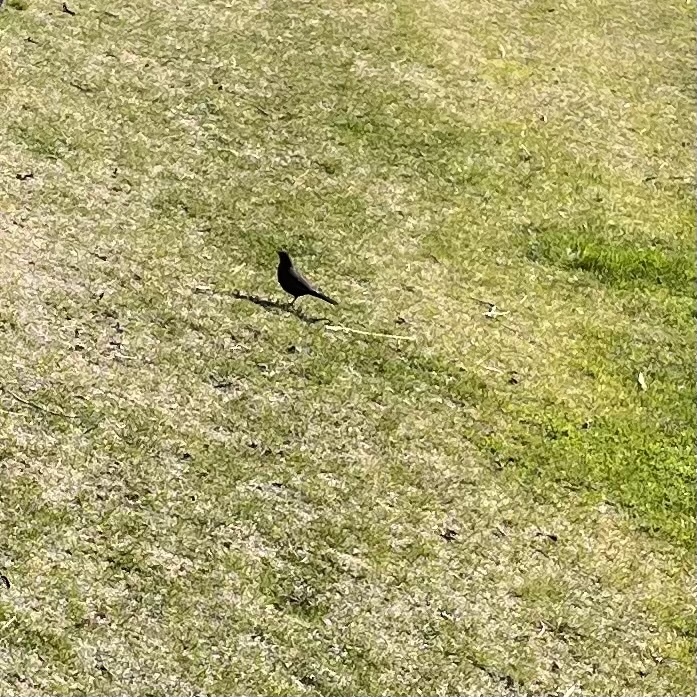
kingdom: Animalia
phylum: Chordata
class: Aves
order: Passeriformes
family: Turdidae
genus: Turdus
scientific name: Turdus merula
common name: Common blackbird
